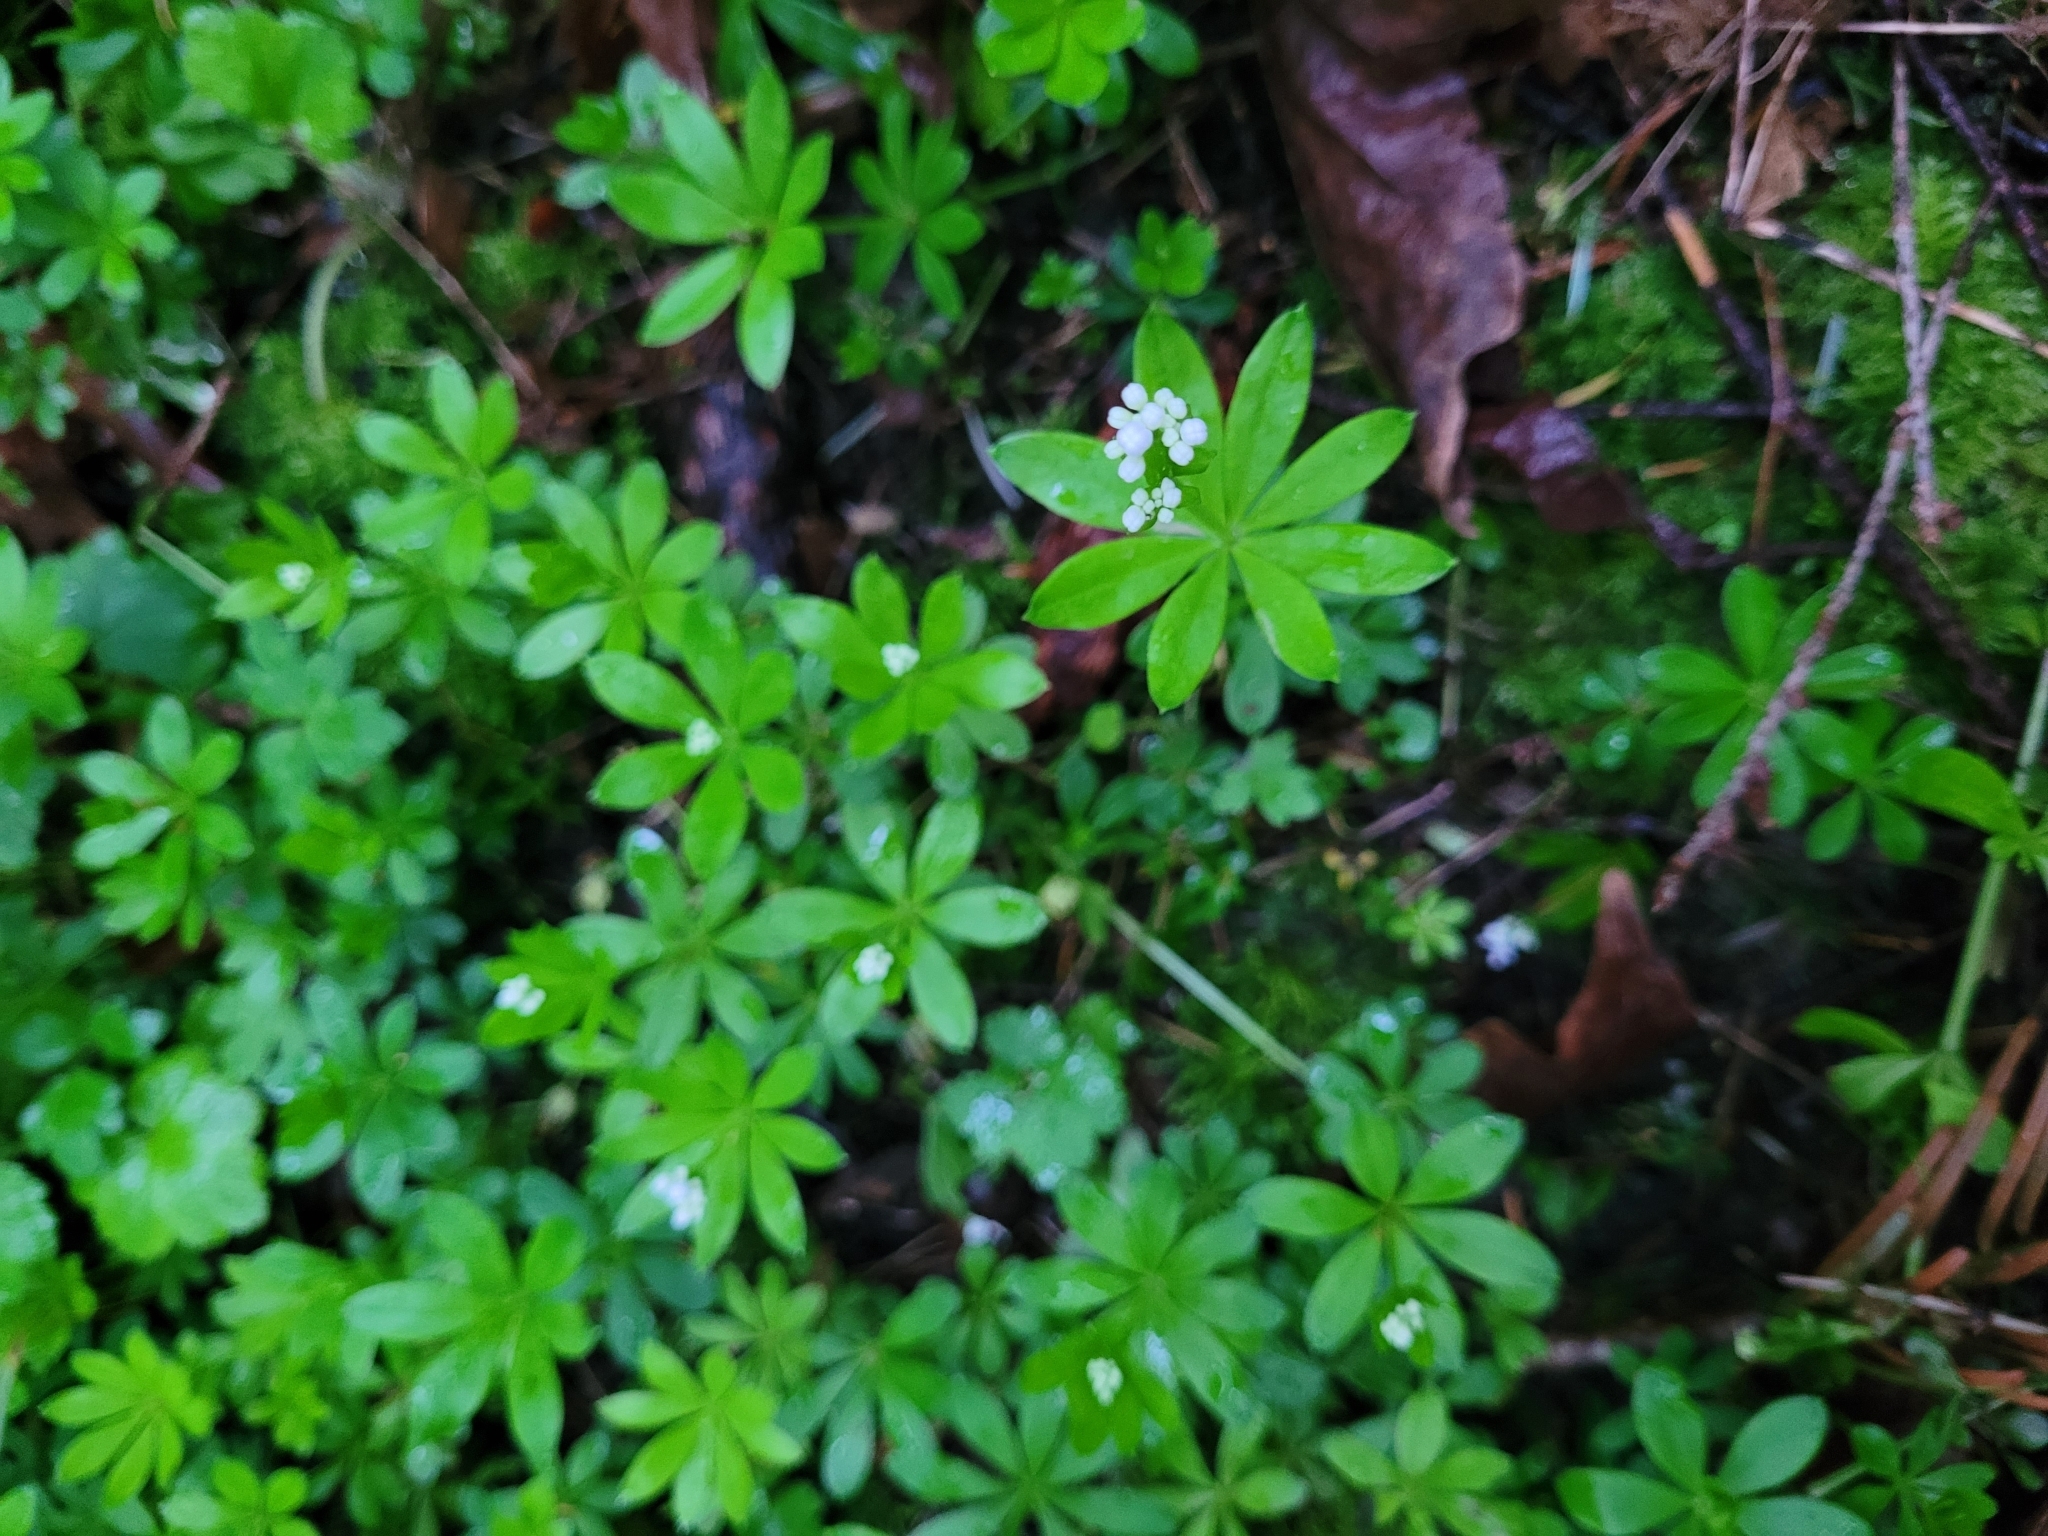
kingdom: Plantae
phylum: Tracheophyta
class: Magnoliopsida
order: Gentianales
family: Rubiaceae
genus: Galium
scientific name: Galium odoratum
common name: Sweet woodruff
